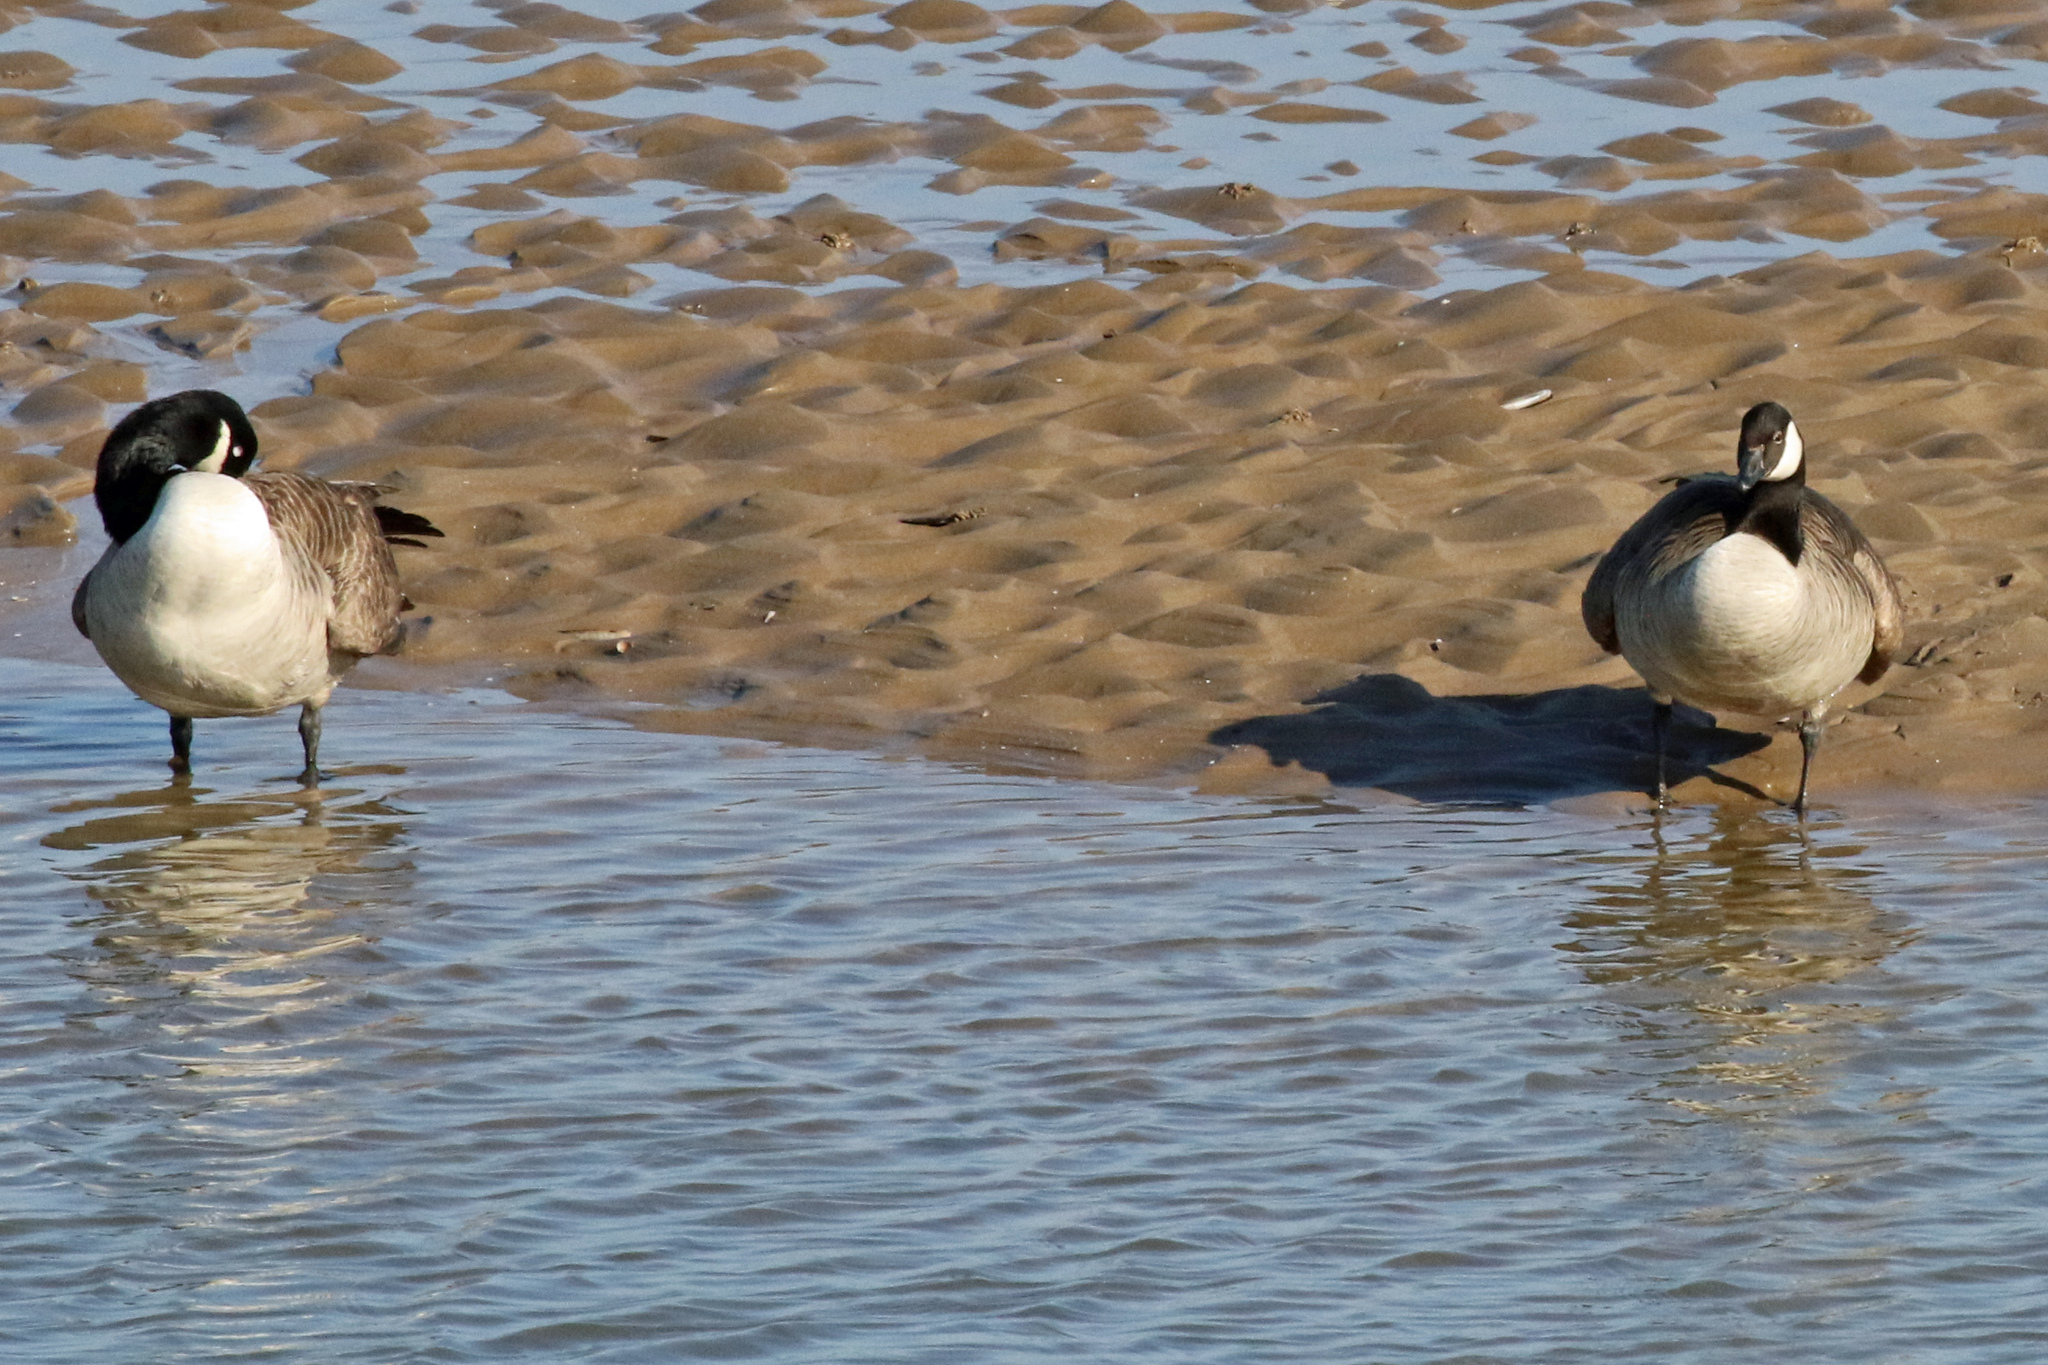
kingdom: Animalia
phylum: Chordata
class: Aves
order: Anseriformes
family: Anatidae
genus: Branta
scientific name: Branta canadensis
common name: Canada goose
